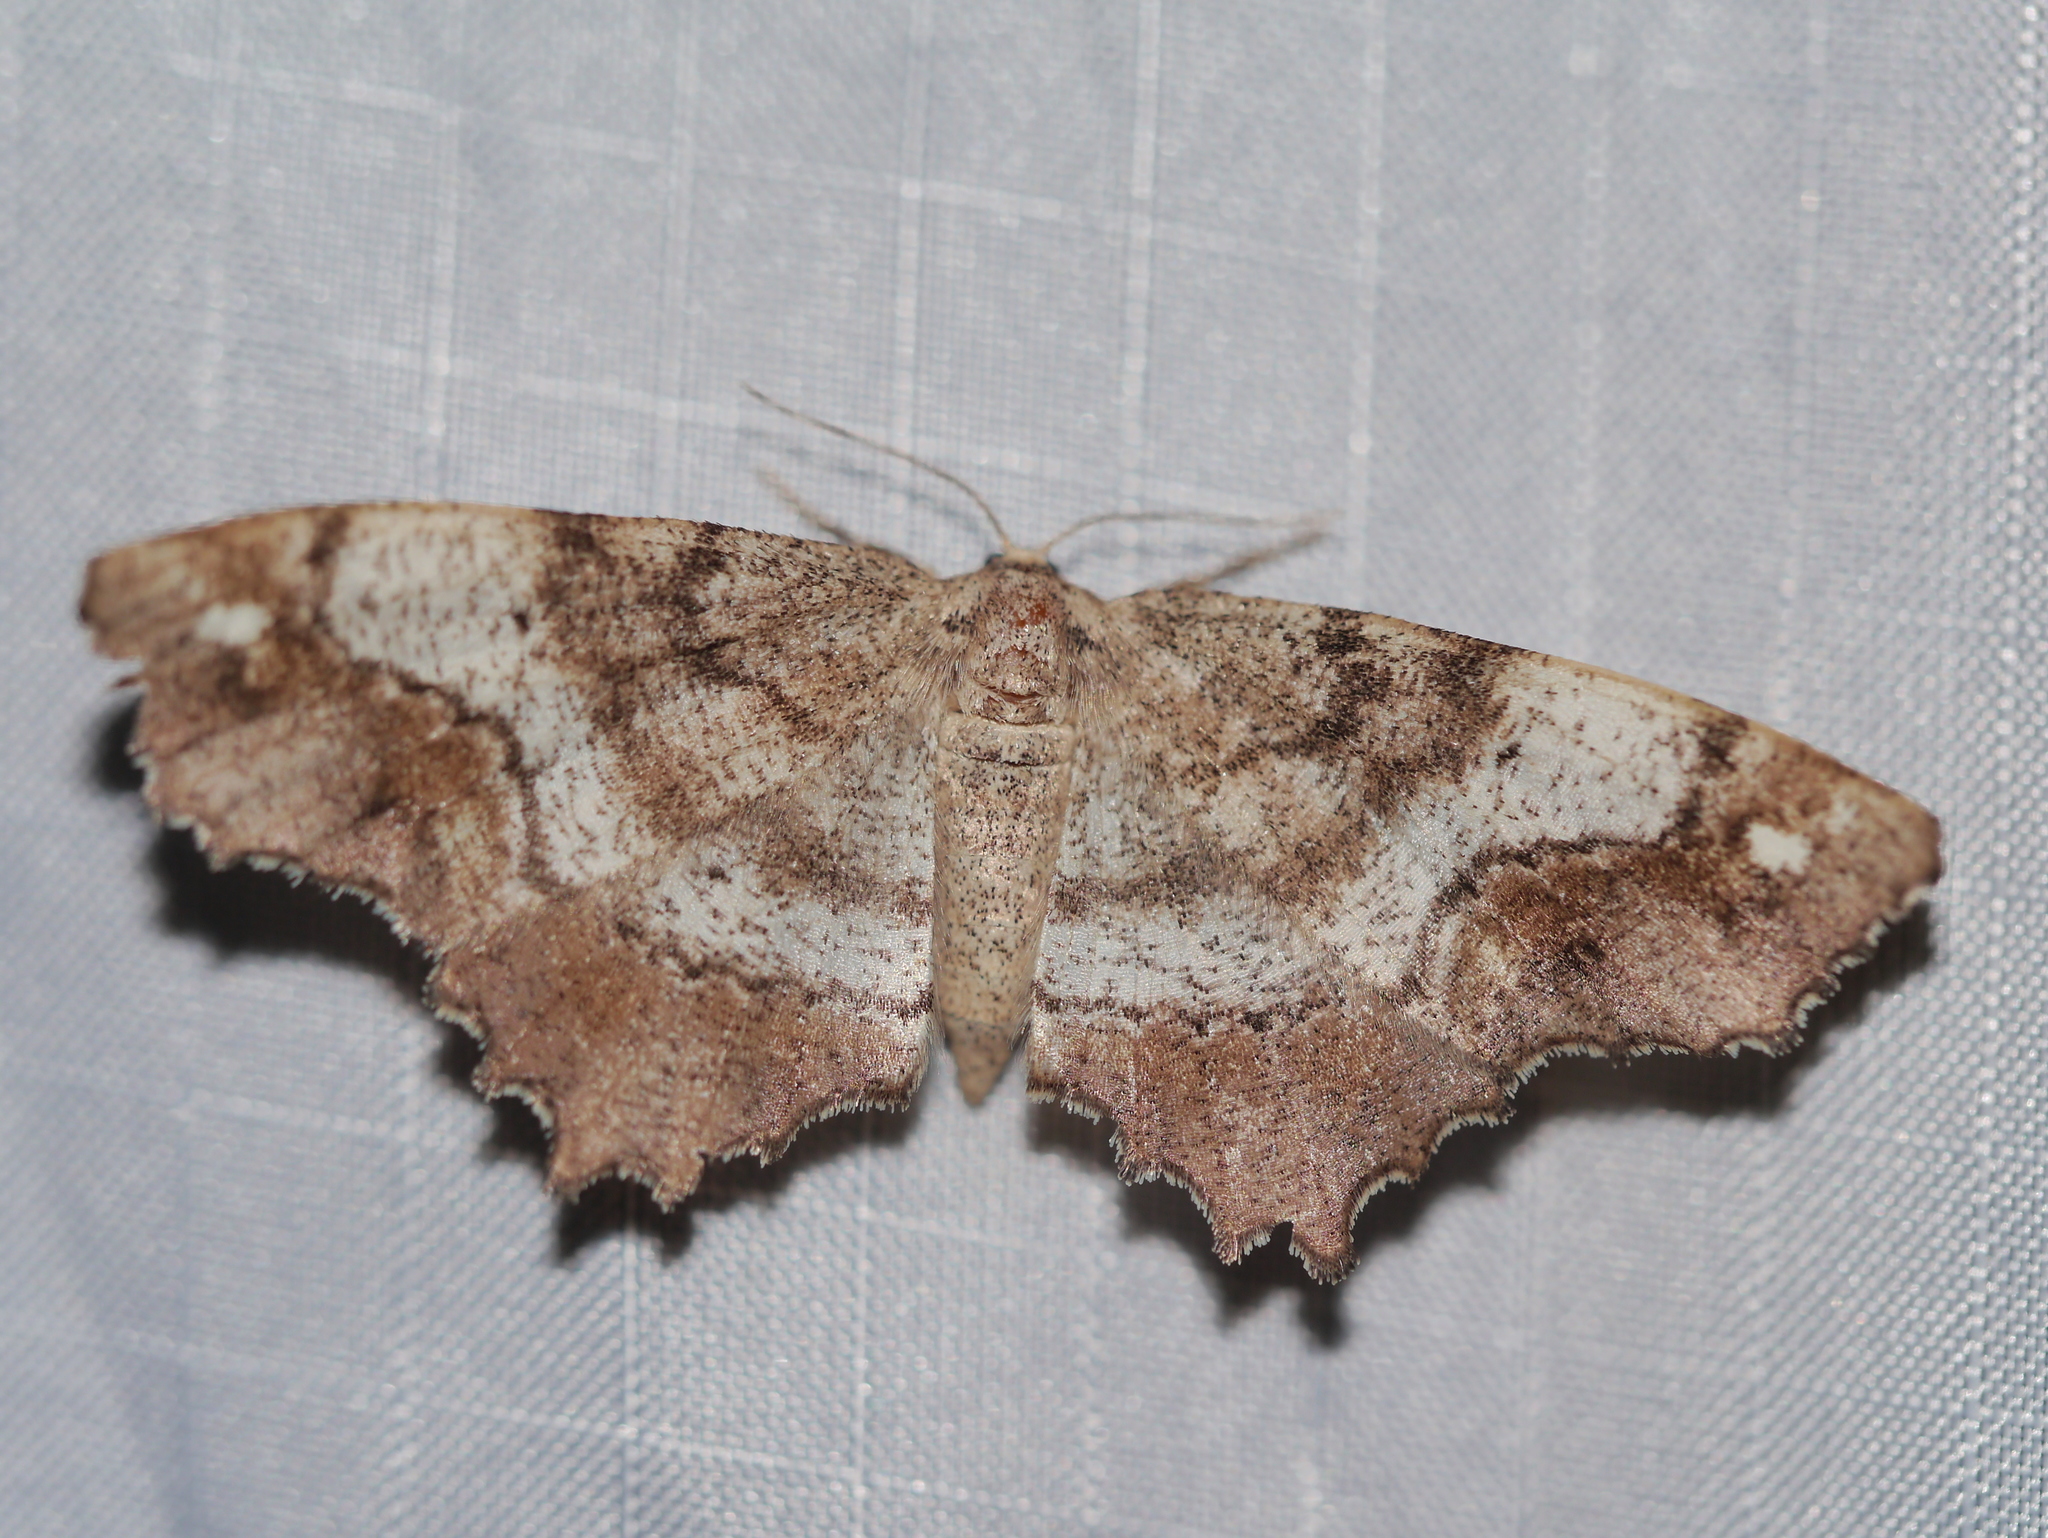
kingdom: Animalia
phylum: Arthropoda
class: Insecta
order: Lepidoptera
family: Geometridae
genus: Hypagyrtis
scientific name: Hypagyrtis unipunctata
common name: One-spotted variant
